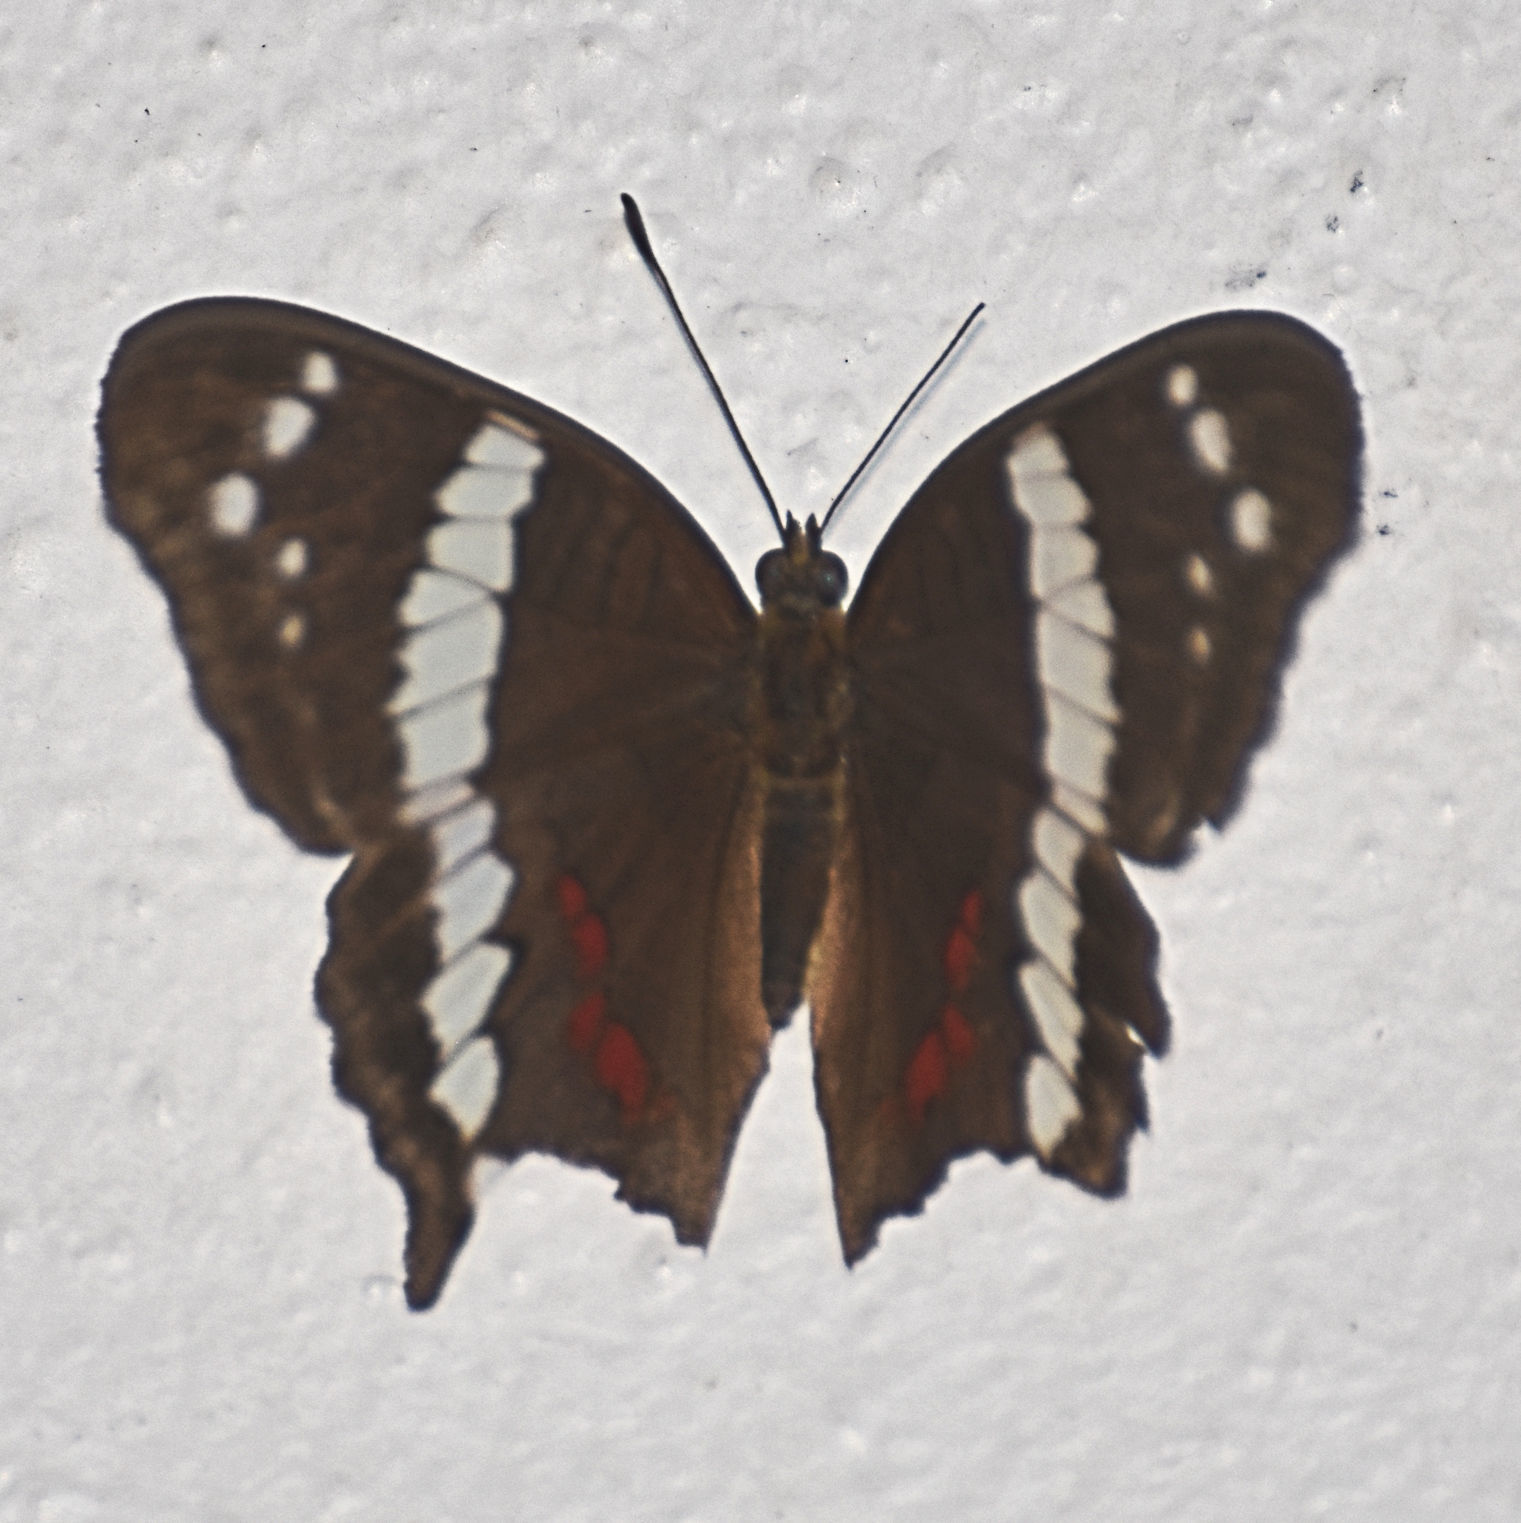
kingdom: Animalia
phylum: Arthropoda
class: Insecta
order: Lepidoptera
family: Nymphalidae
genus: Anartia
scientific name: Anartia fatima
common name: Banded peacock
